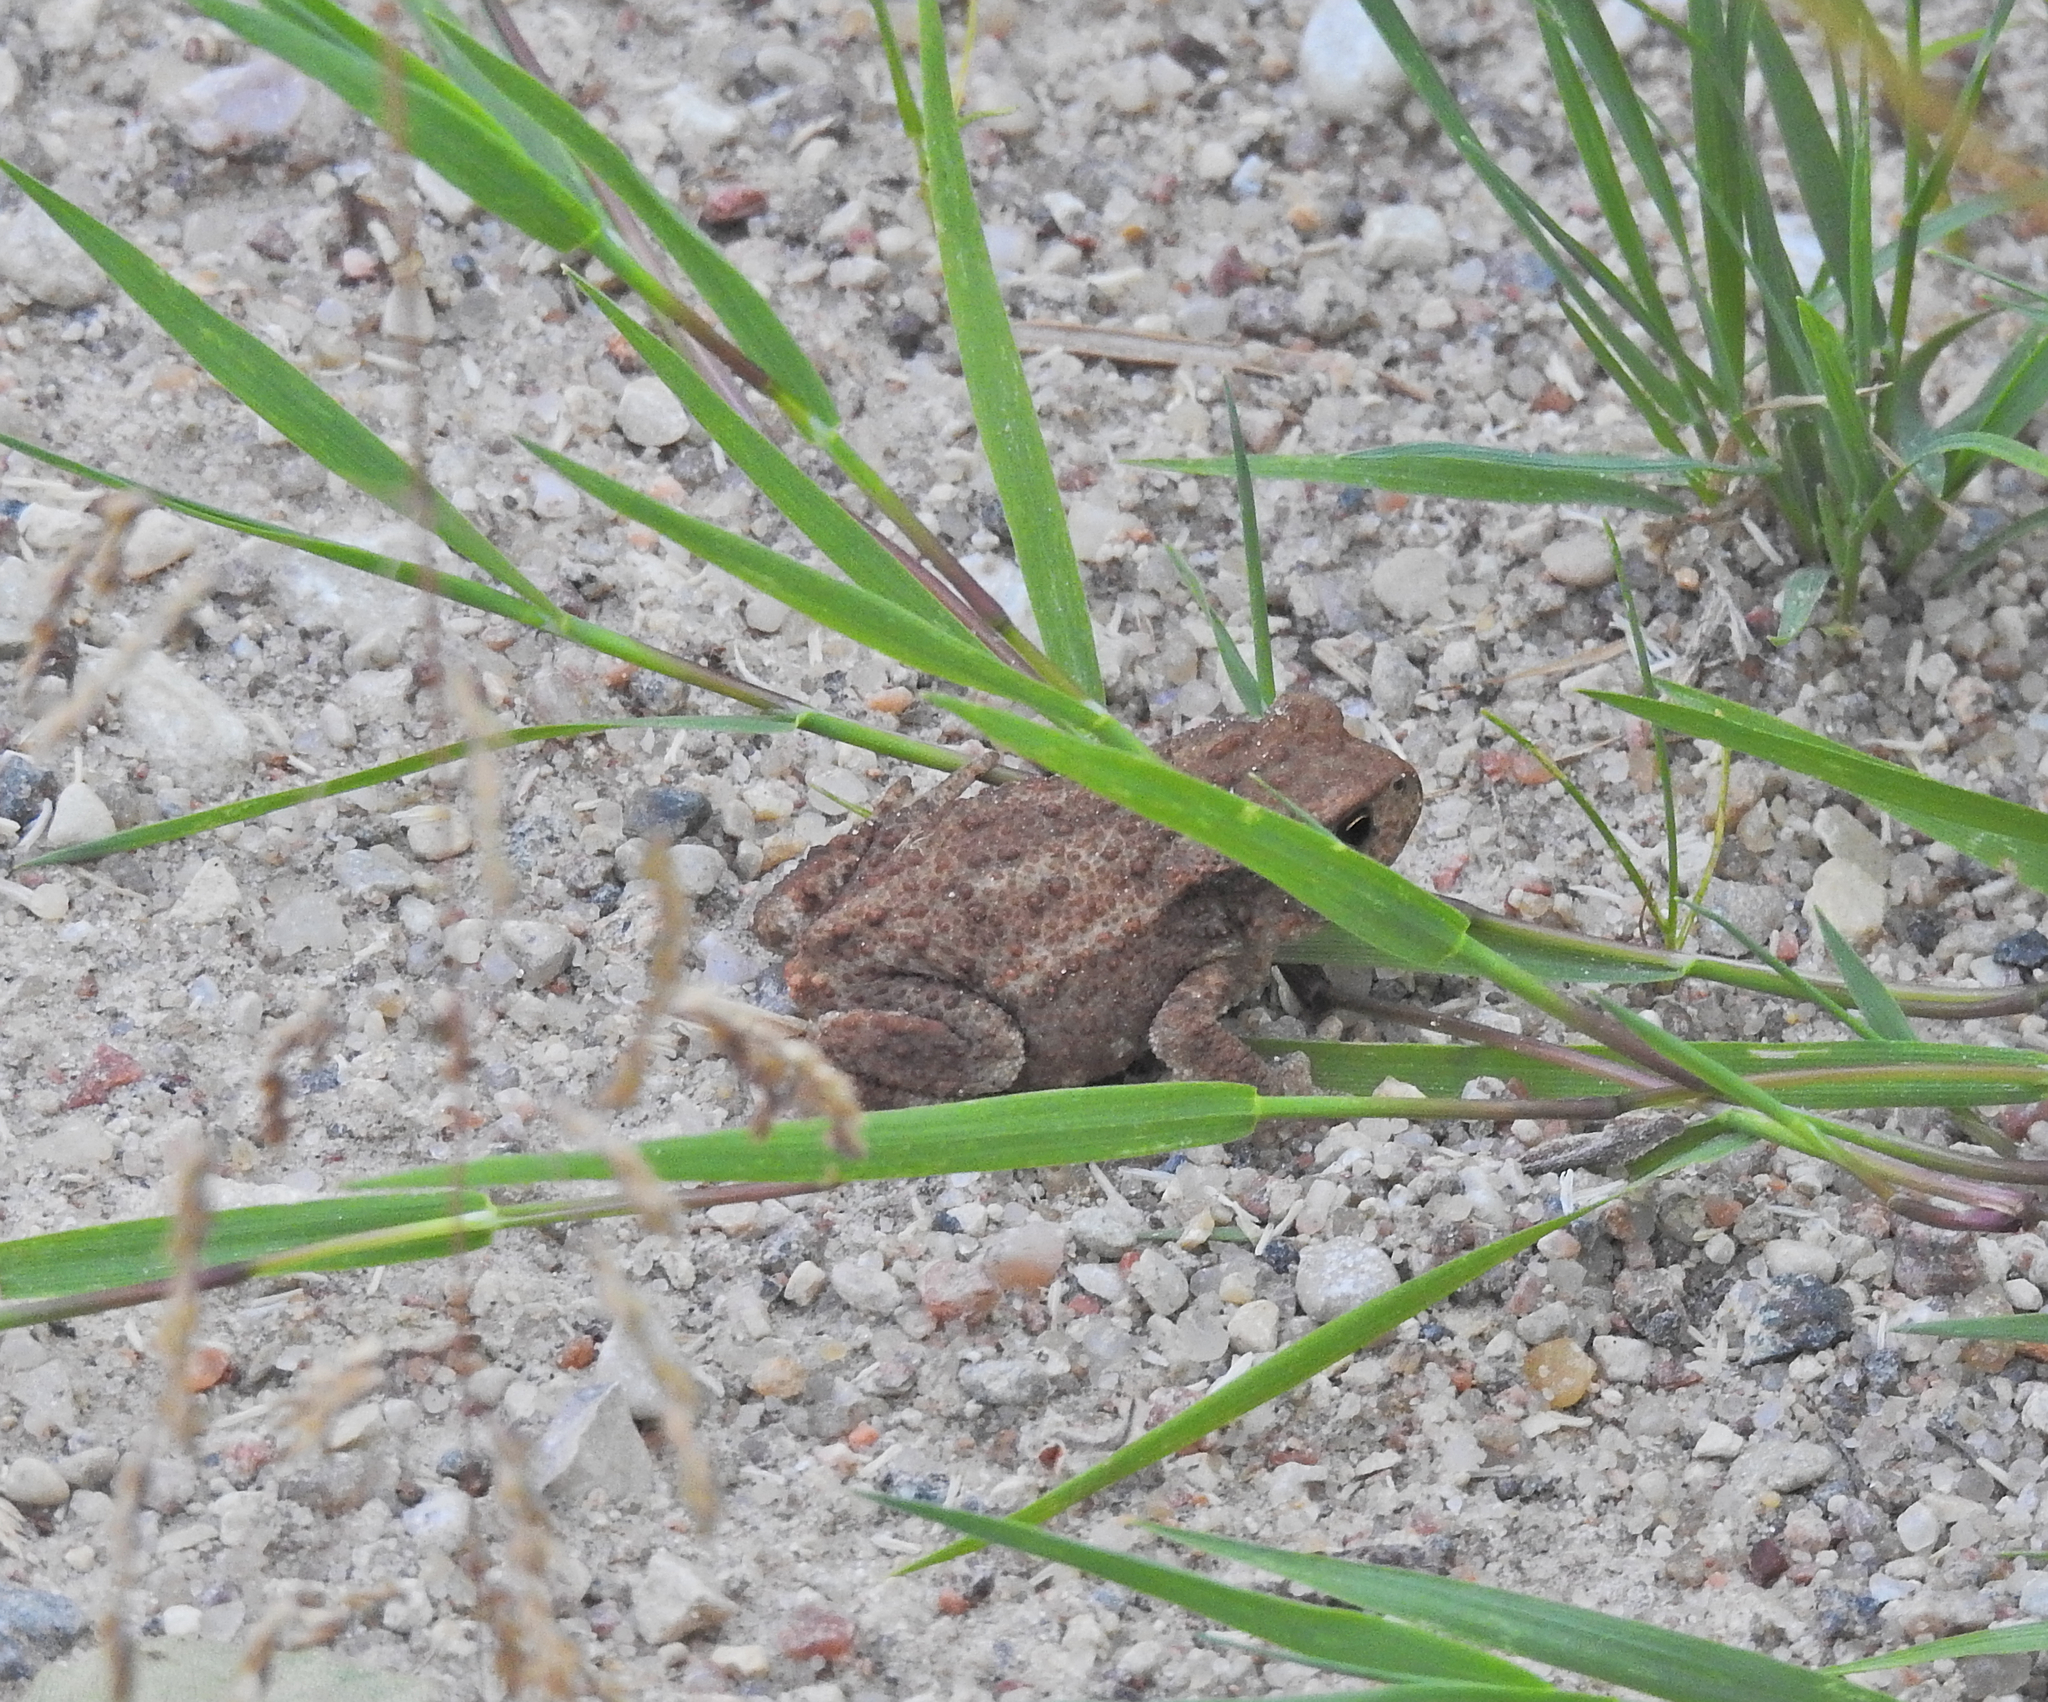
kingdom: Animalia
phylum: Chordata
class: Amphibia
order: Anura
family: Bufonidae
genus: Bufo
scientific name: Bufo bufo
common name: Common toad
